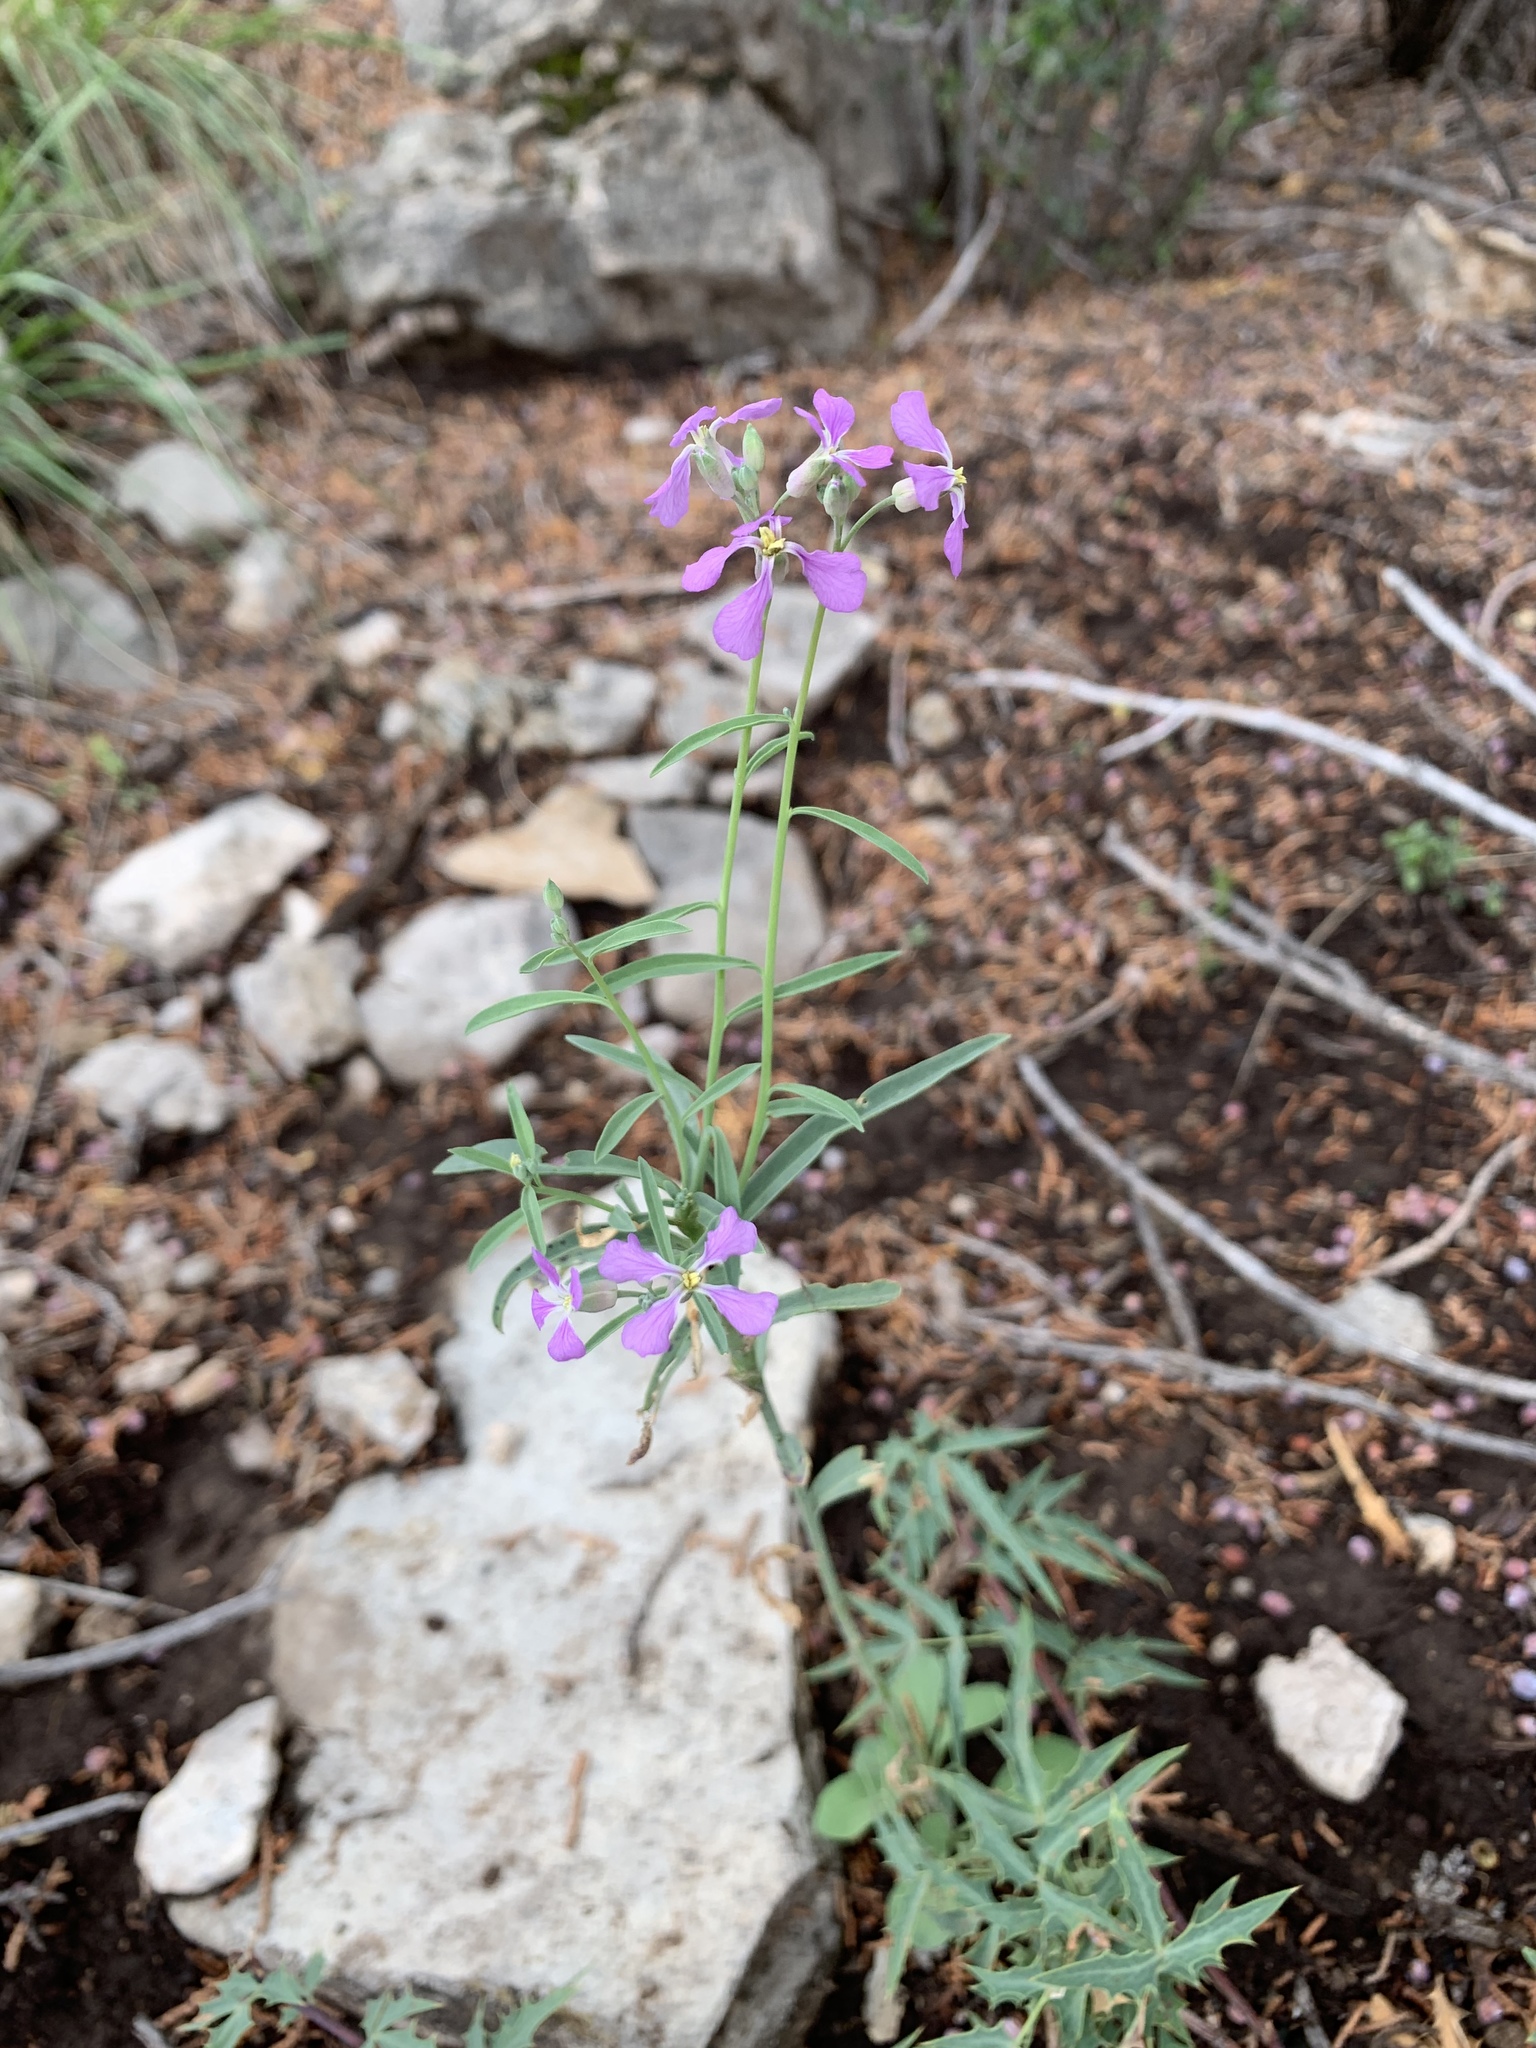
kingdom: Plantae
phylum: Tracheophyta
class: Magnoliopsida
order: Brassicales
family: Brassicaceae
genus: Hesperidanthus
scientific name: Hesperidanthus linearifolius
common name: Slim-leaf plains mustard
